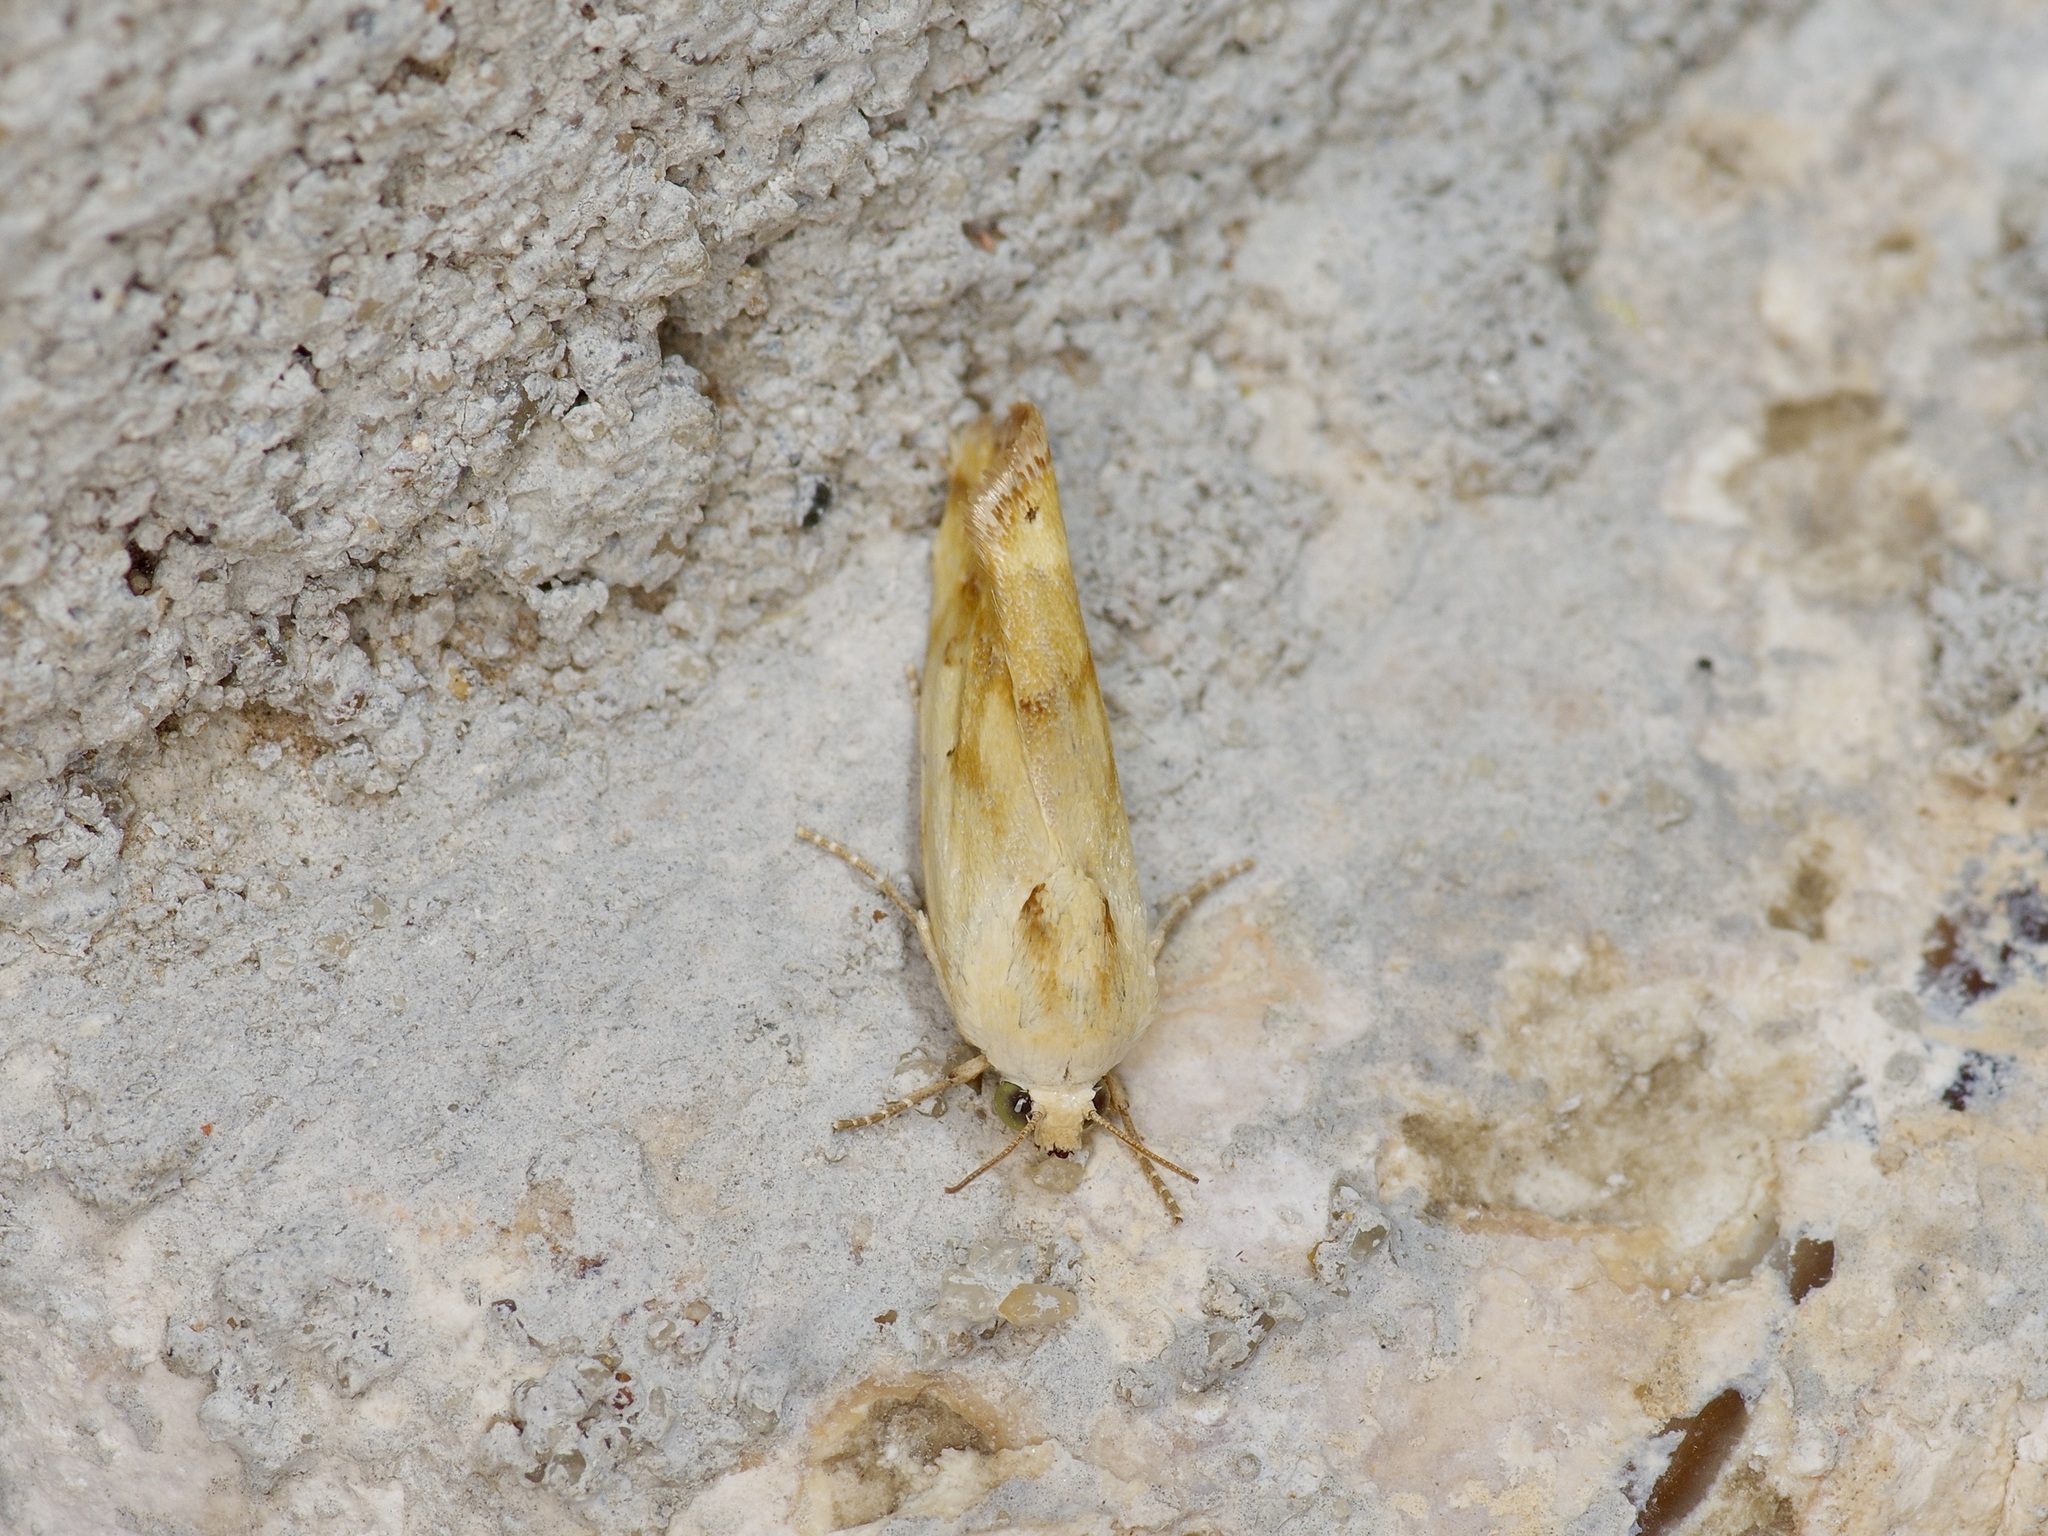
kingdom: Animalia
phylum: Arthropoda
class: Insecta
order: Lepidoptera
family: Noctuidae
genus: Acontia
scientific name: Acontia pulchra
